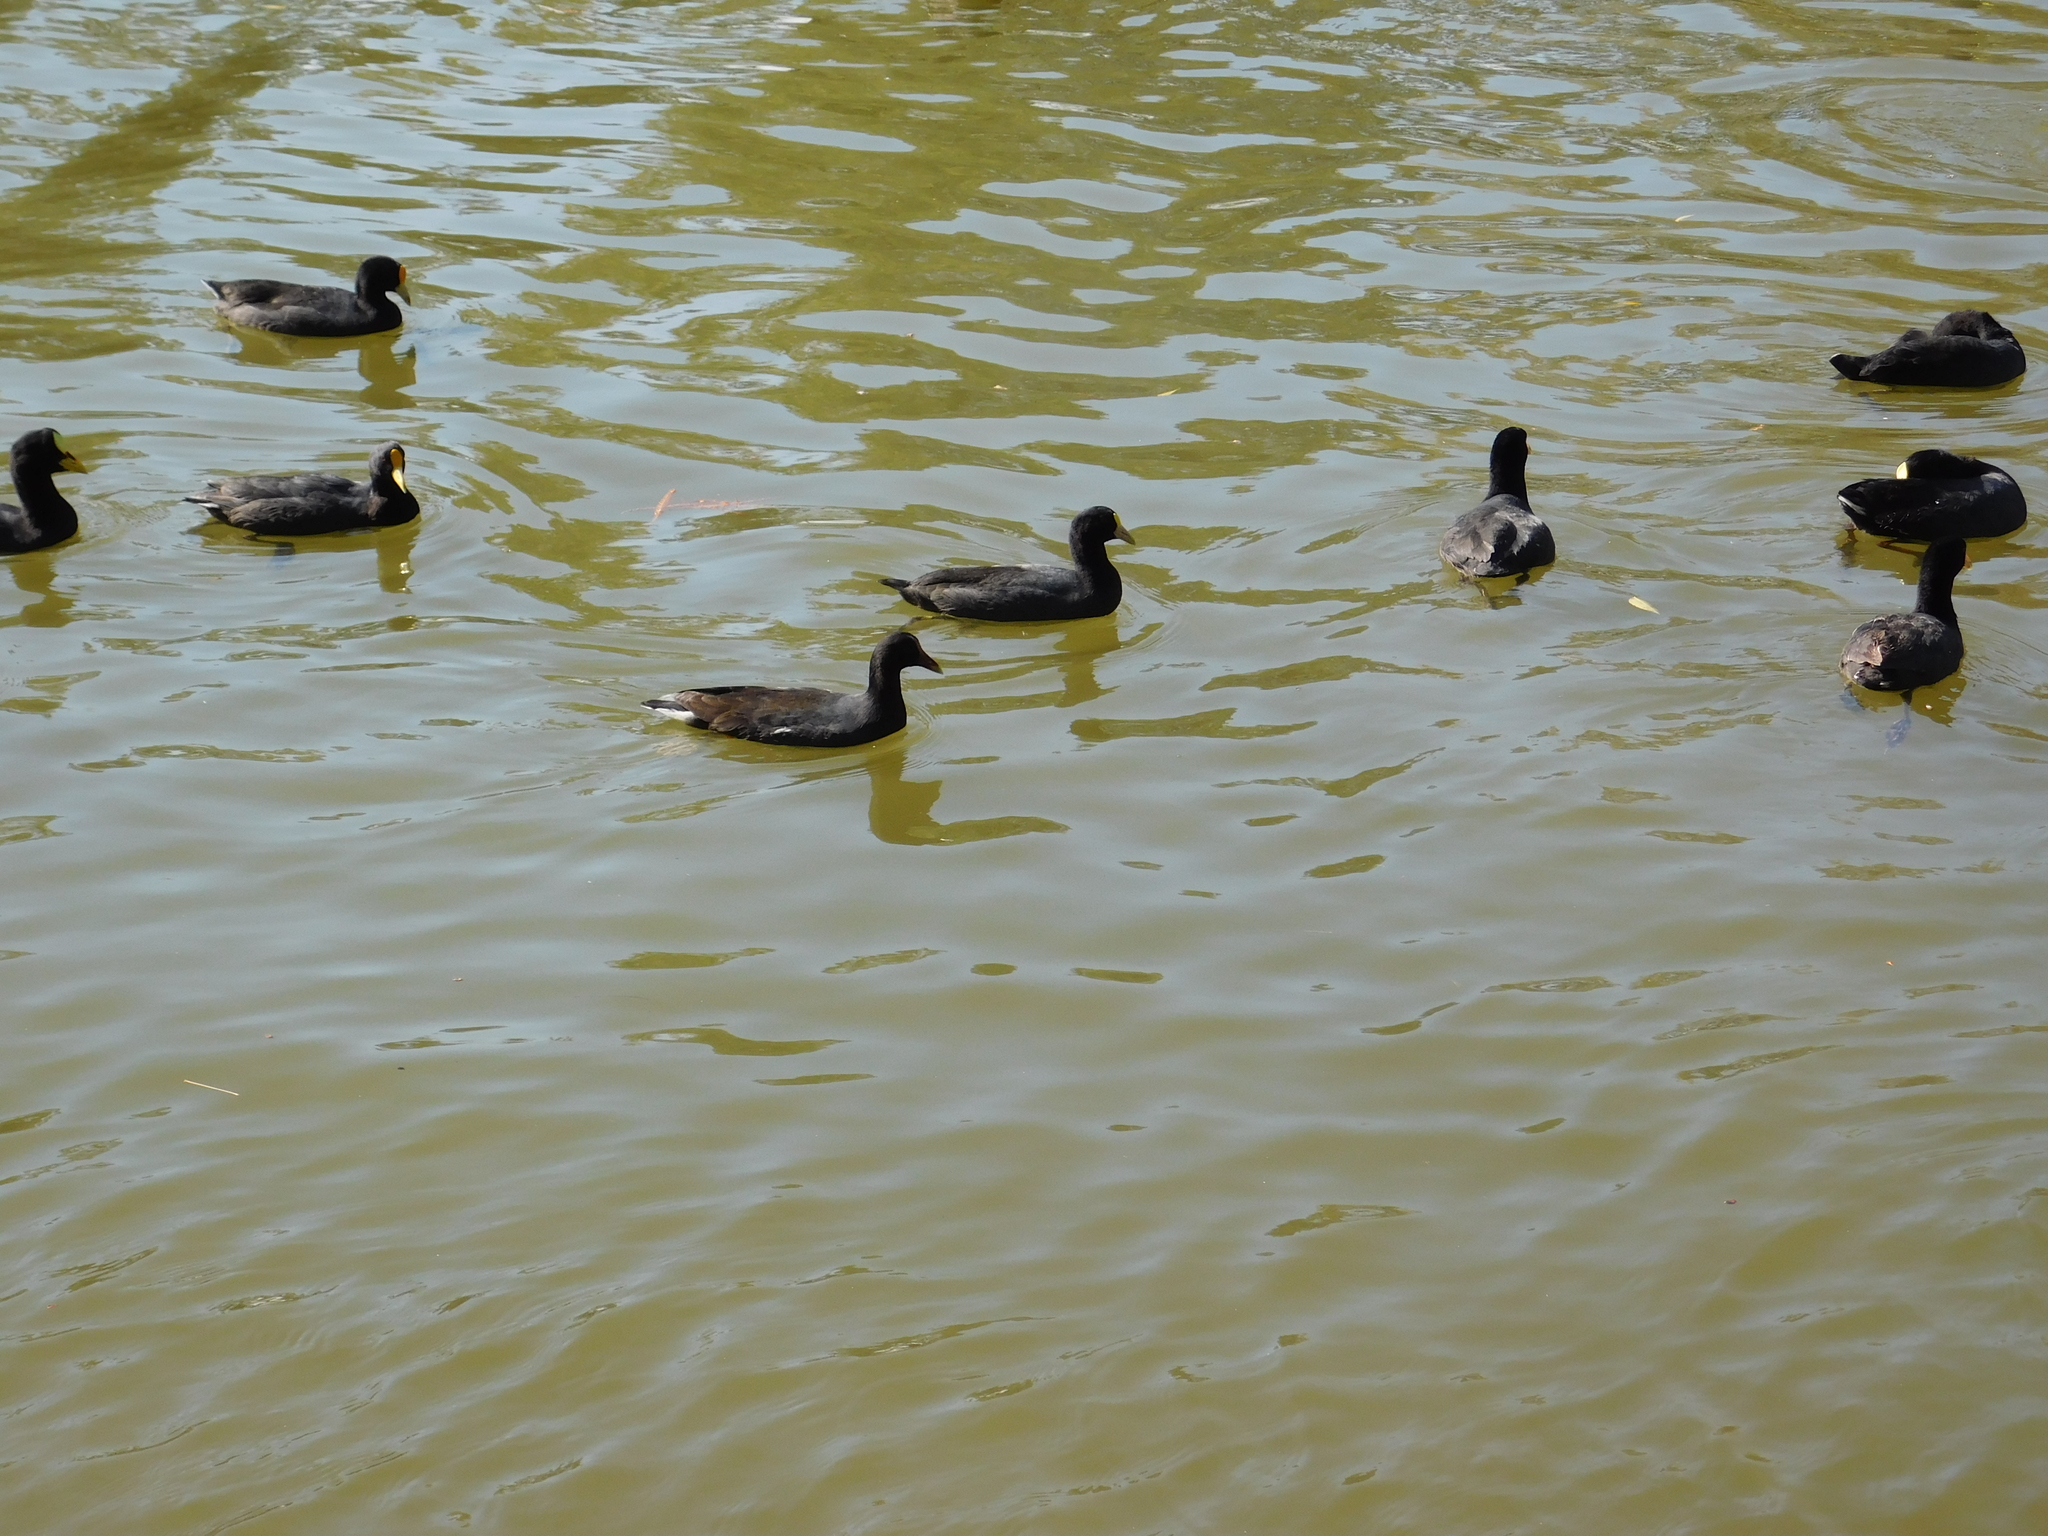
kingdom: Animalia
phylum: Chordata
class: Aves
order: Gruiformes
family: Rallidae
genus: Fulica
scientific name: Fulica leucoptera
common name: White-winged coot
